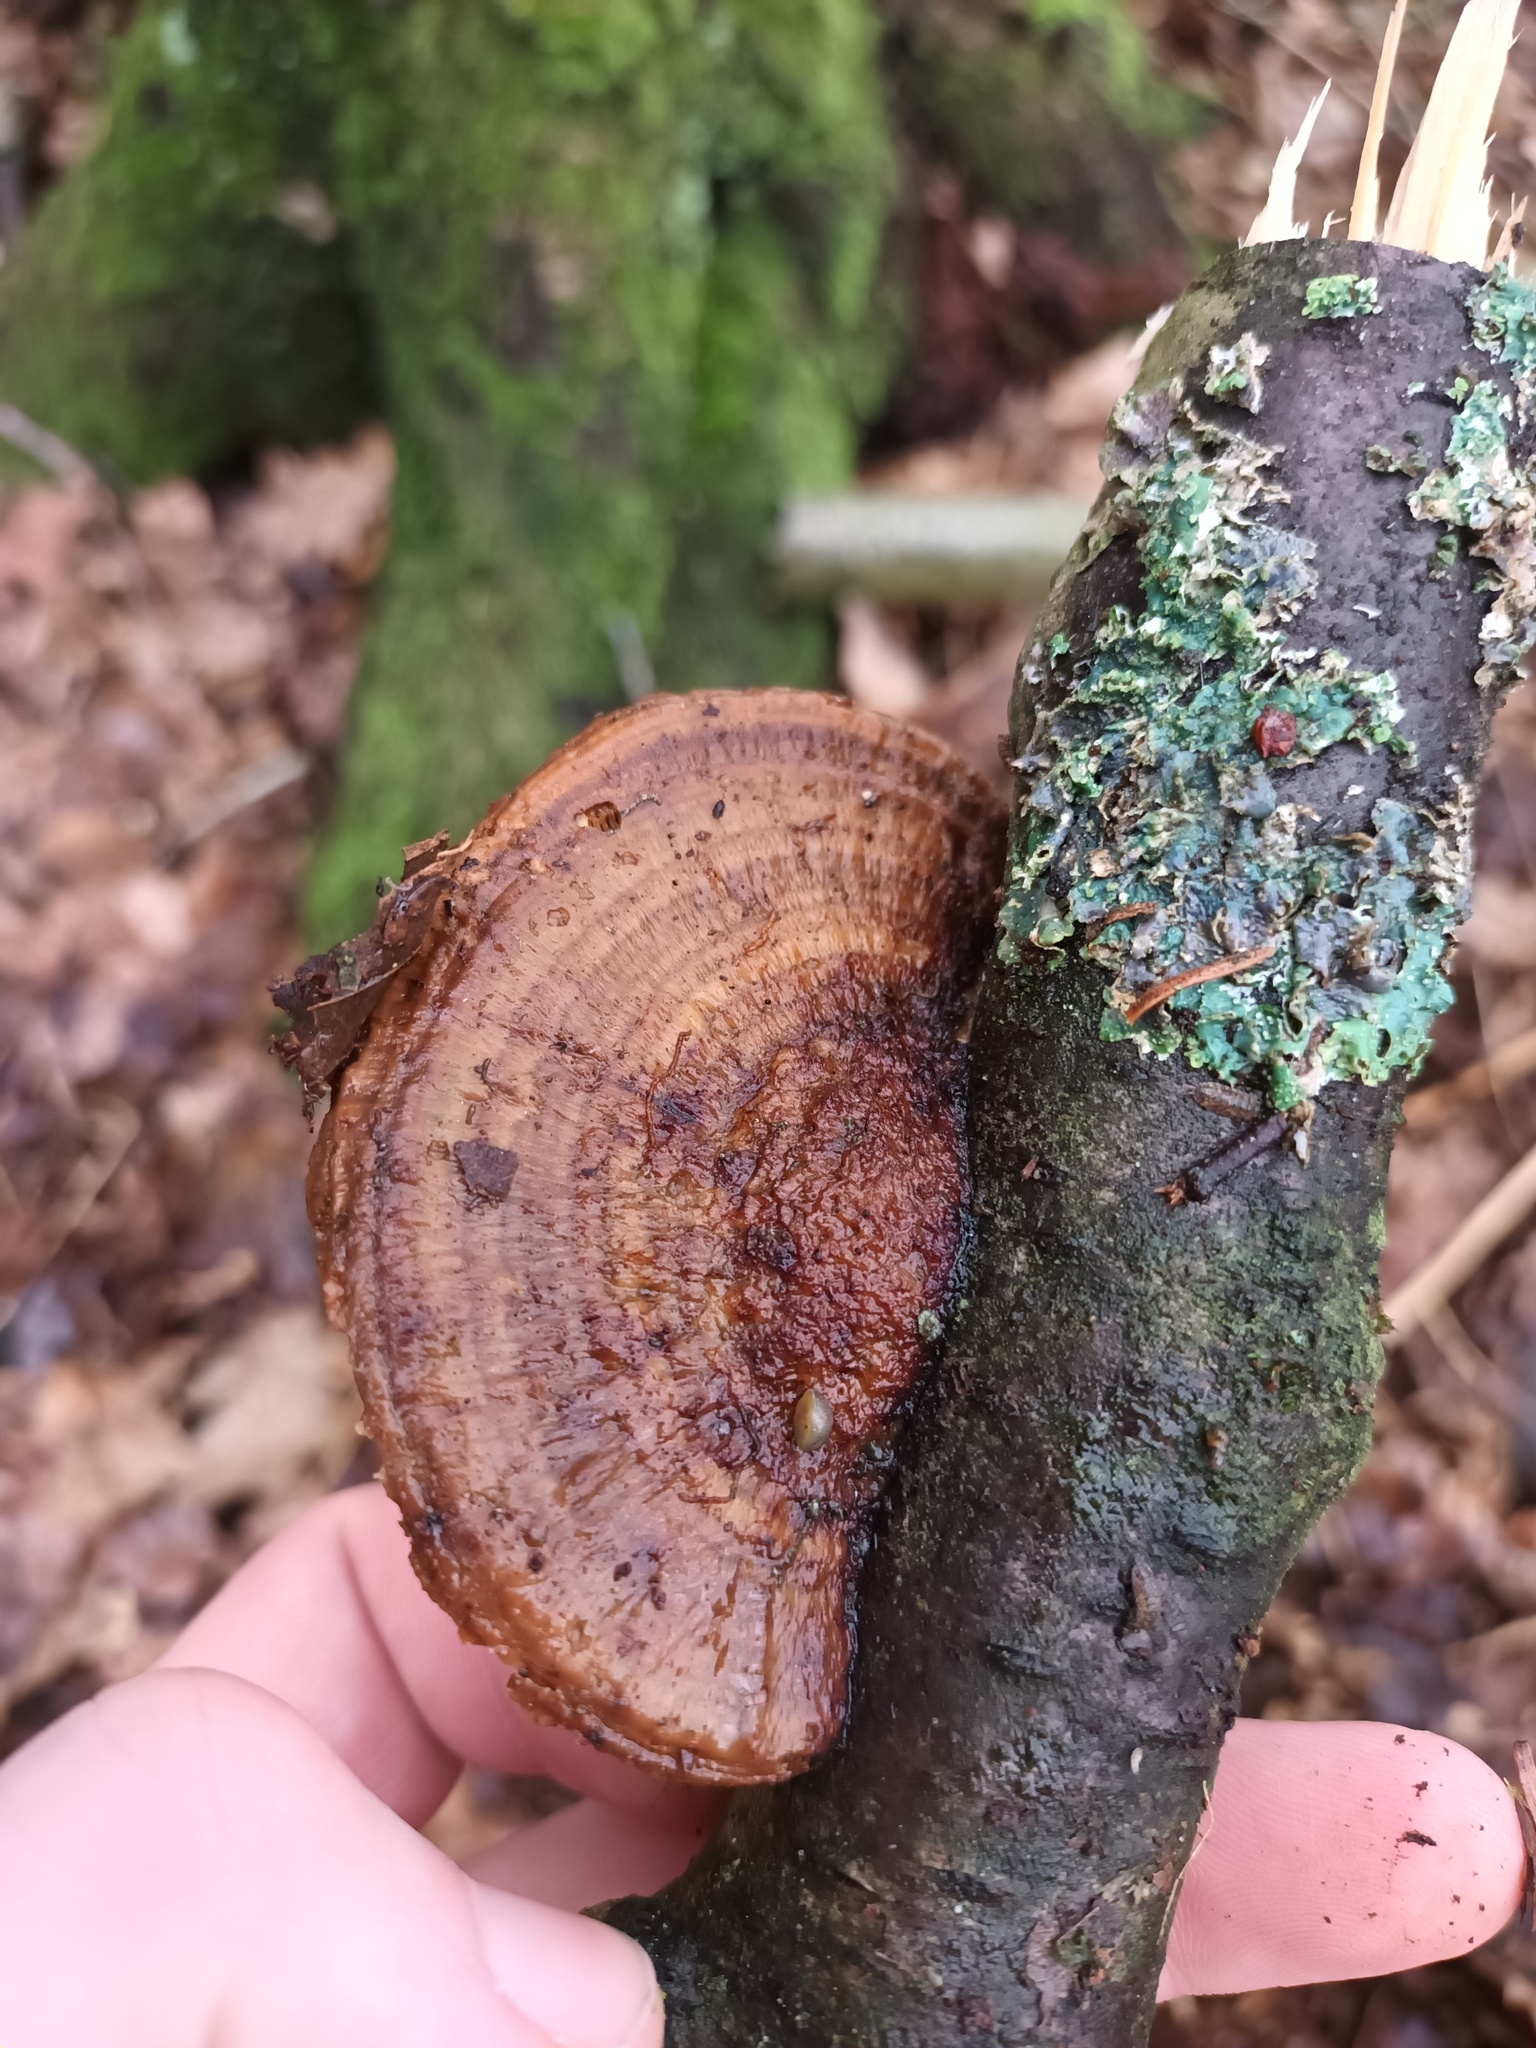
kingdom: Fungi
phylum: Basidiomycota
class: Agaricomycetes
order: Polyporales
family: Polyporaceae
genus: Daedaleopsis
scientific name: Daedaleopsis confragosa
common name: Blushing bracket
